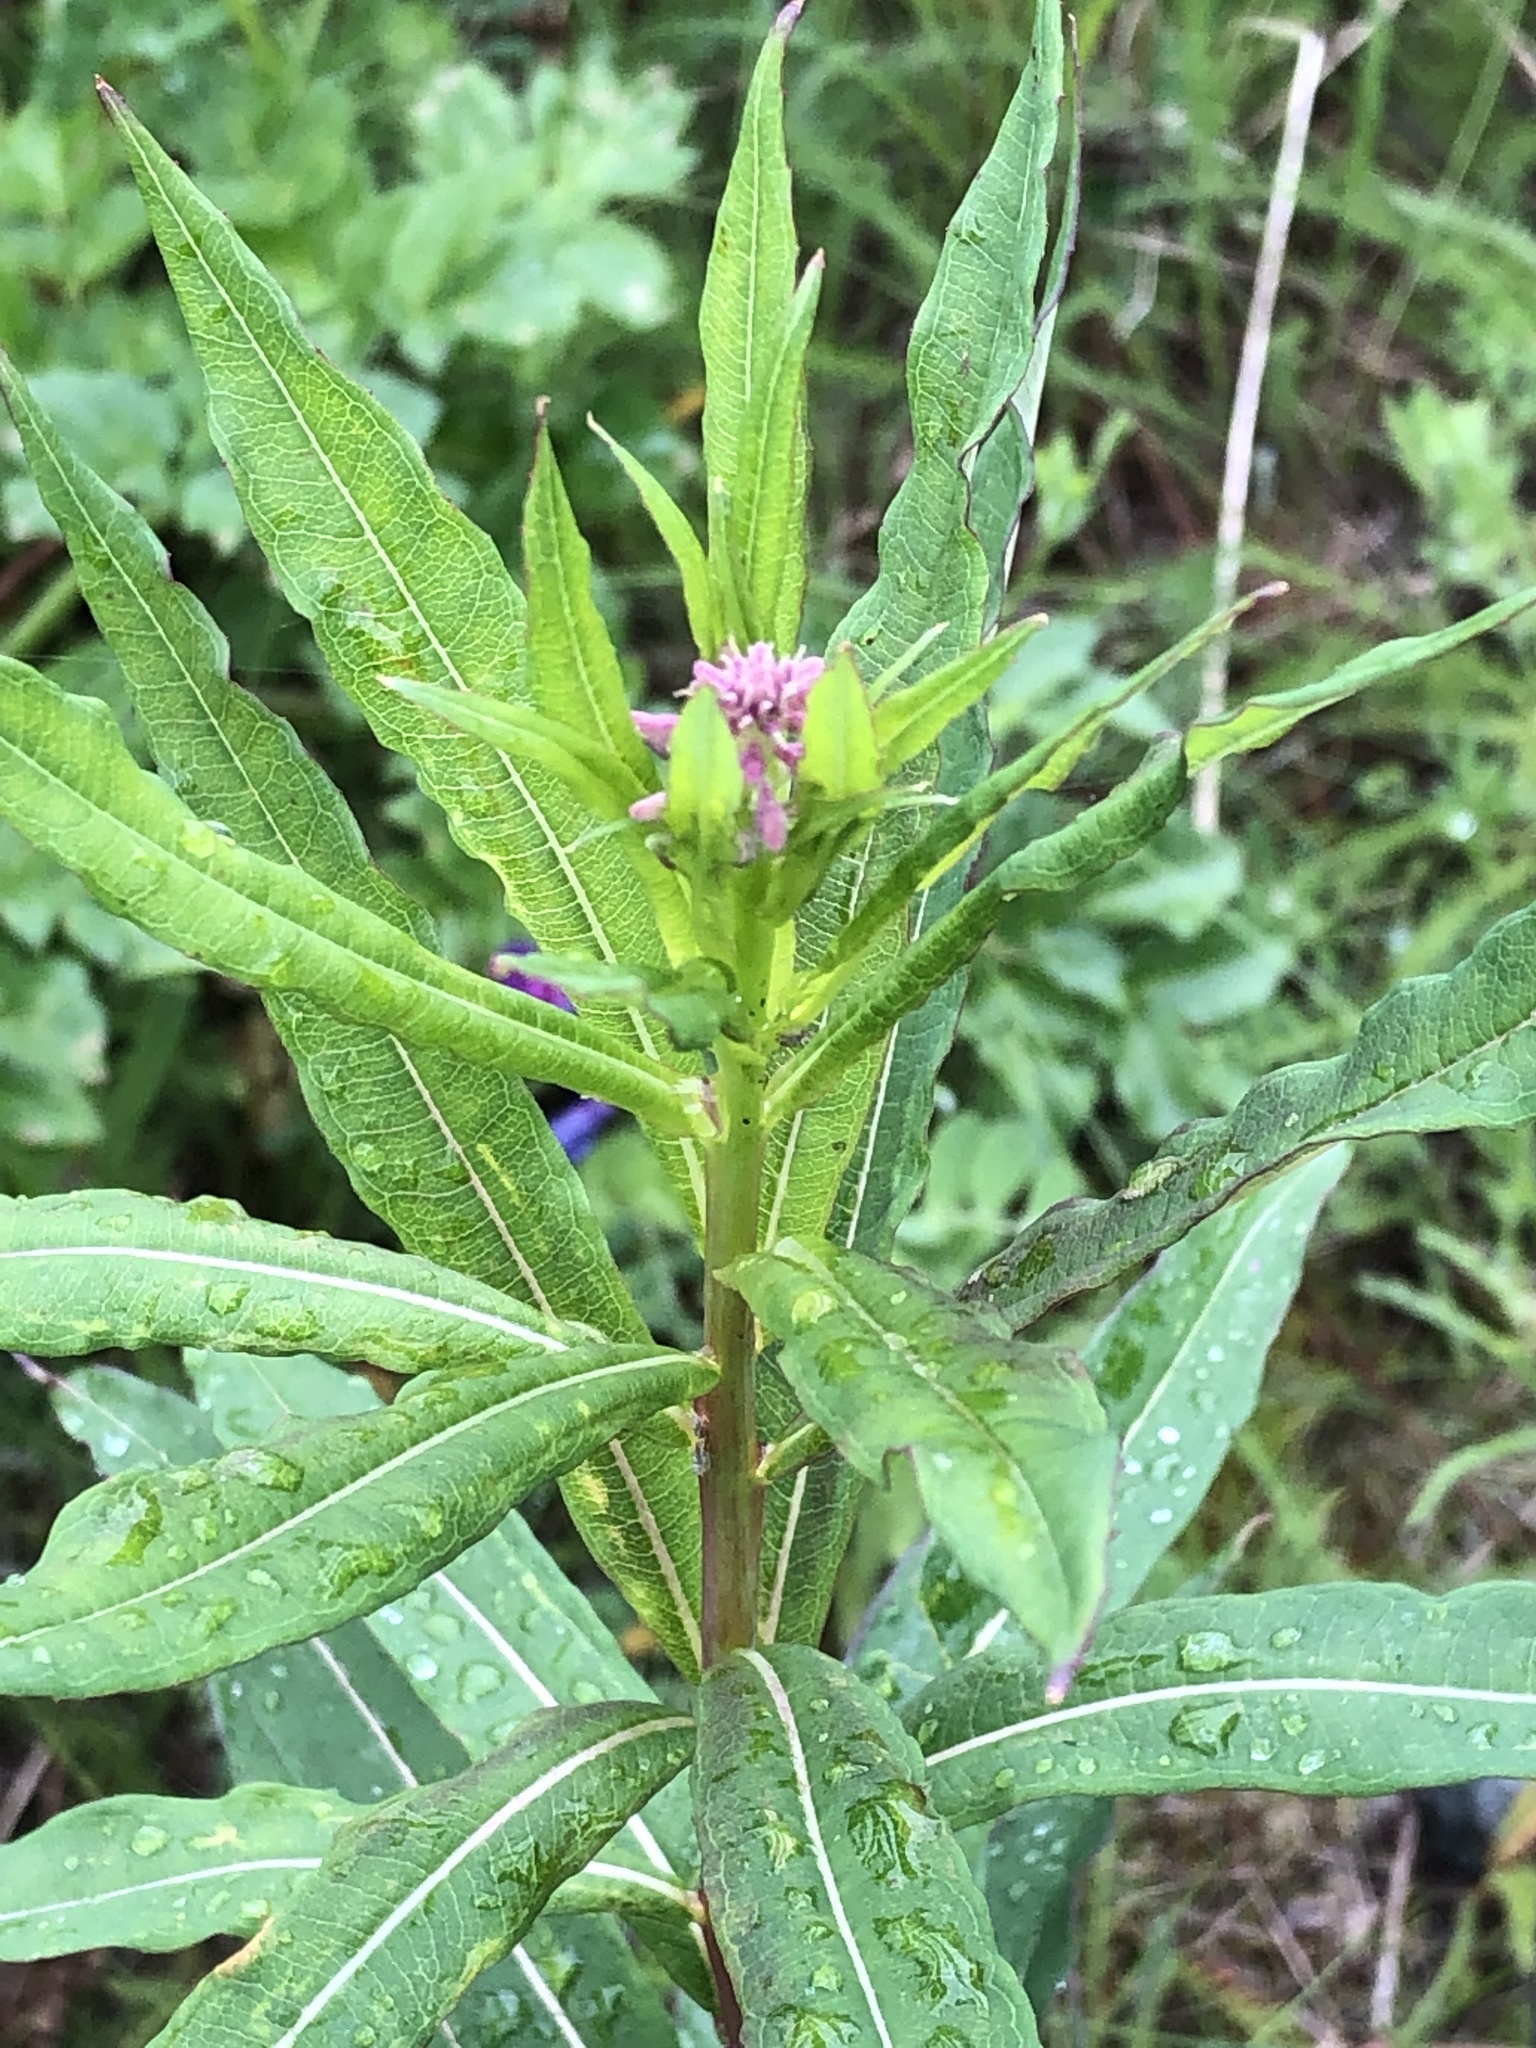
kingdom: Plantae
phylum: Tracheophyta
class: Magnoliopsida
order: Myrtales
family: Onagraceae
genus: Chamaenerion
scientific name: Chamaenerion angustifolium
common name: Fireweed
